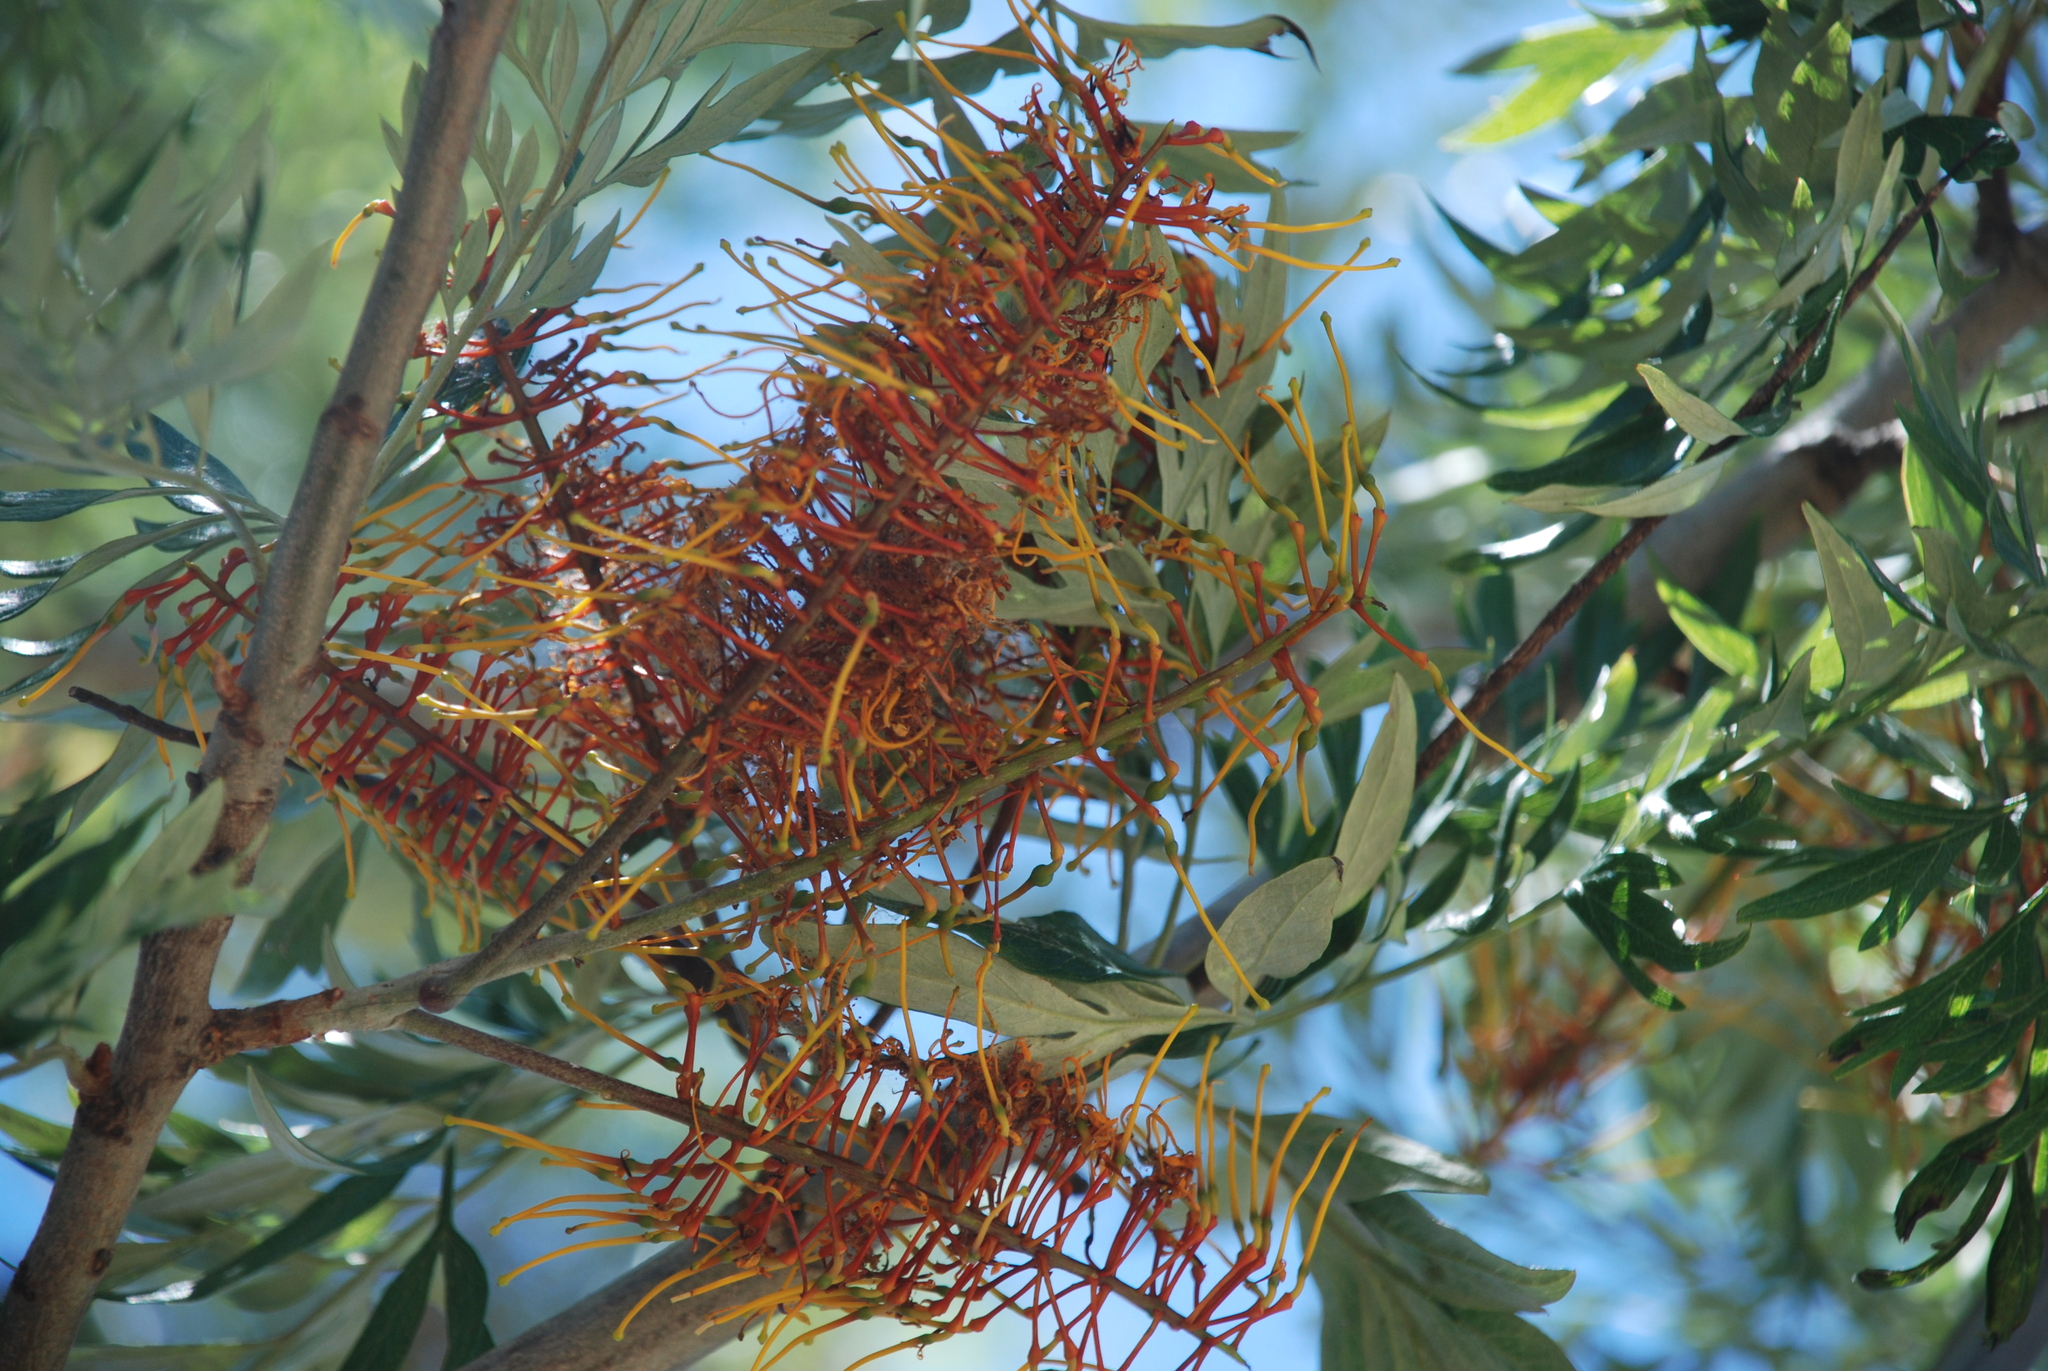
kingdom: Plantae
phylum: Tracheophyta
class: Magnoliopsida
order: Proteales
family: Proteaceae
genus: Grevillea
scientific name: Grevillea robusta
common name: Silkoak
